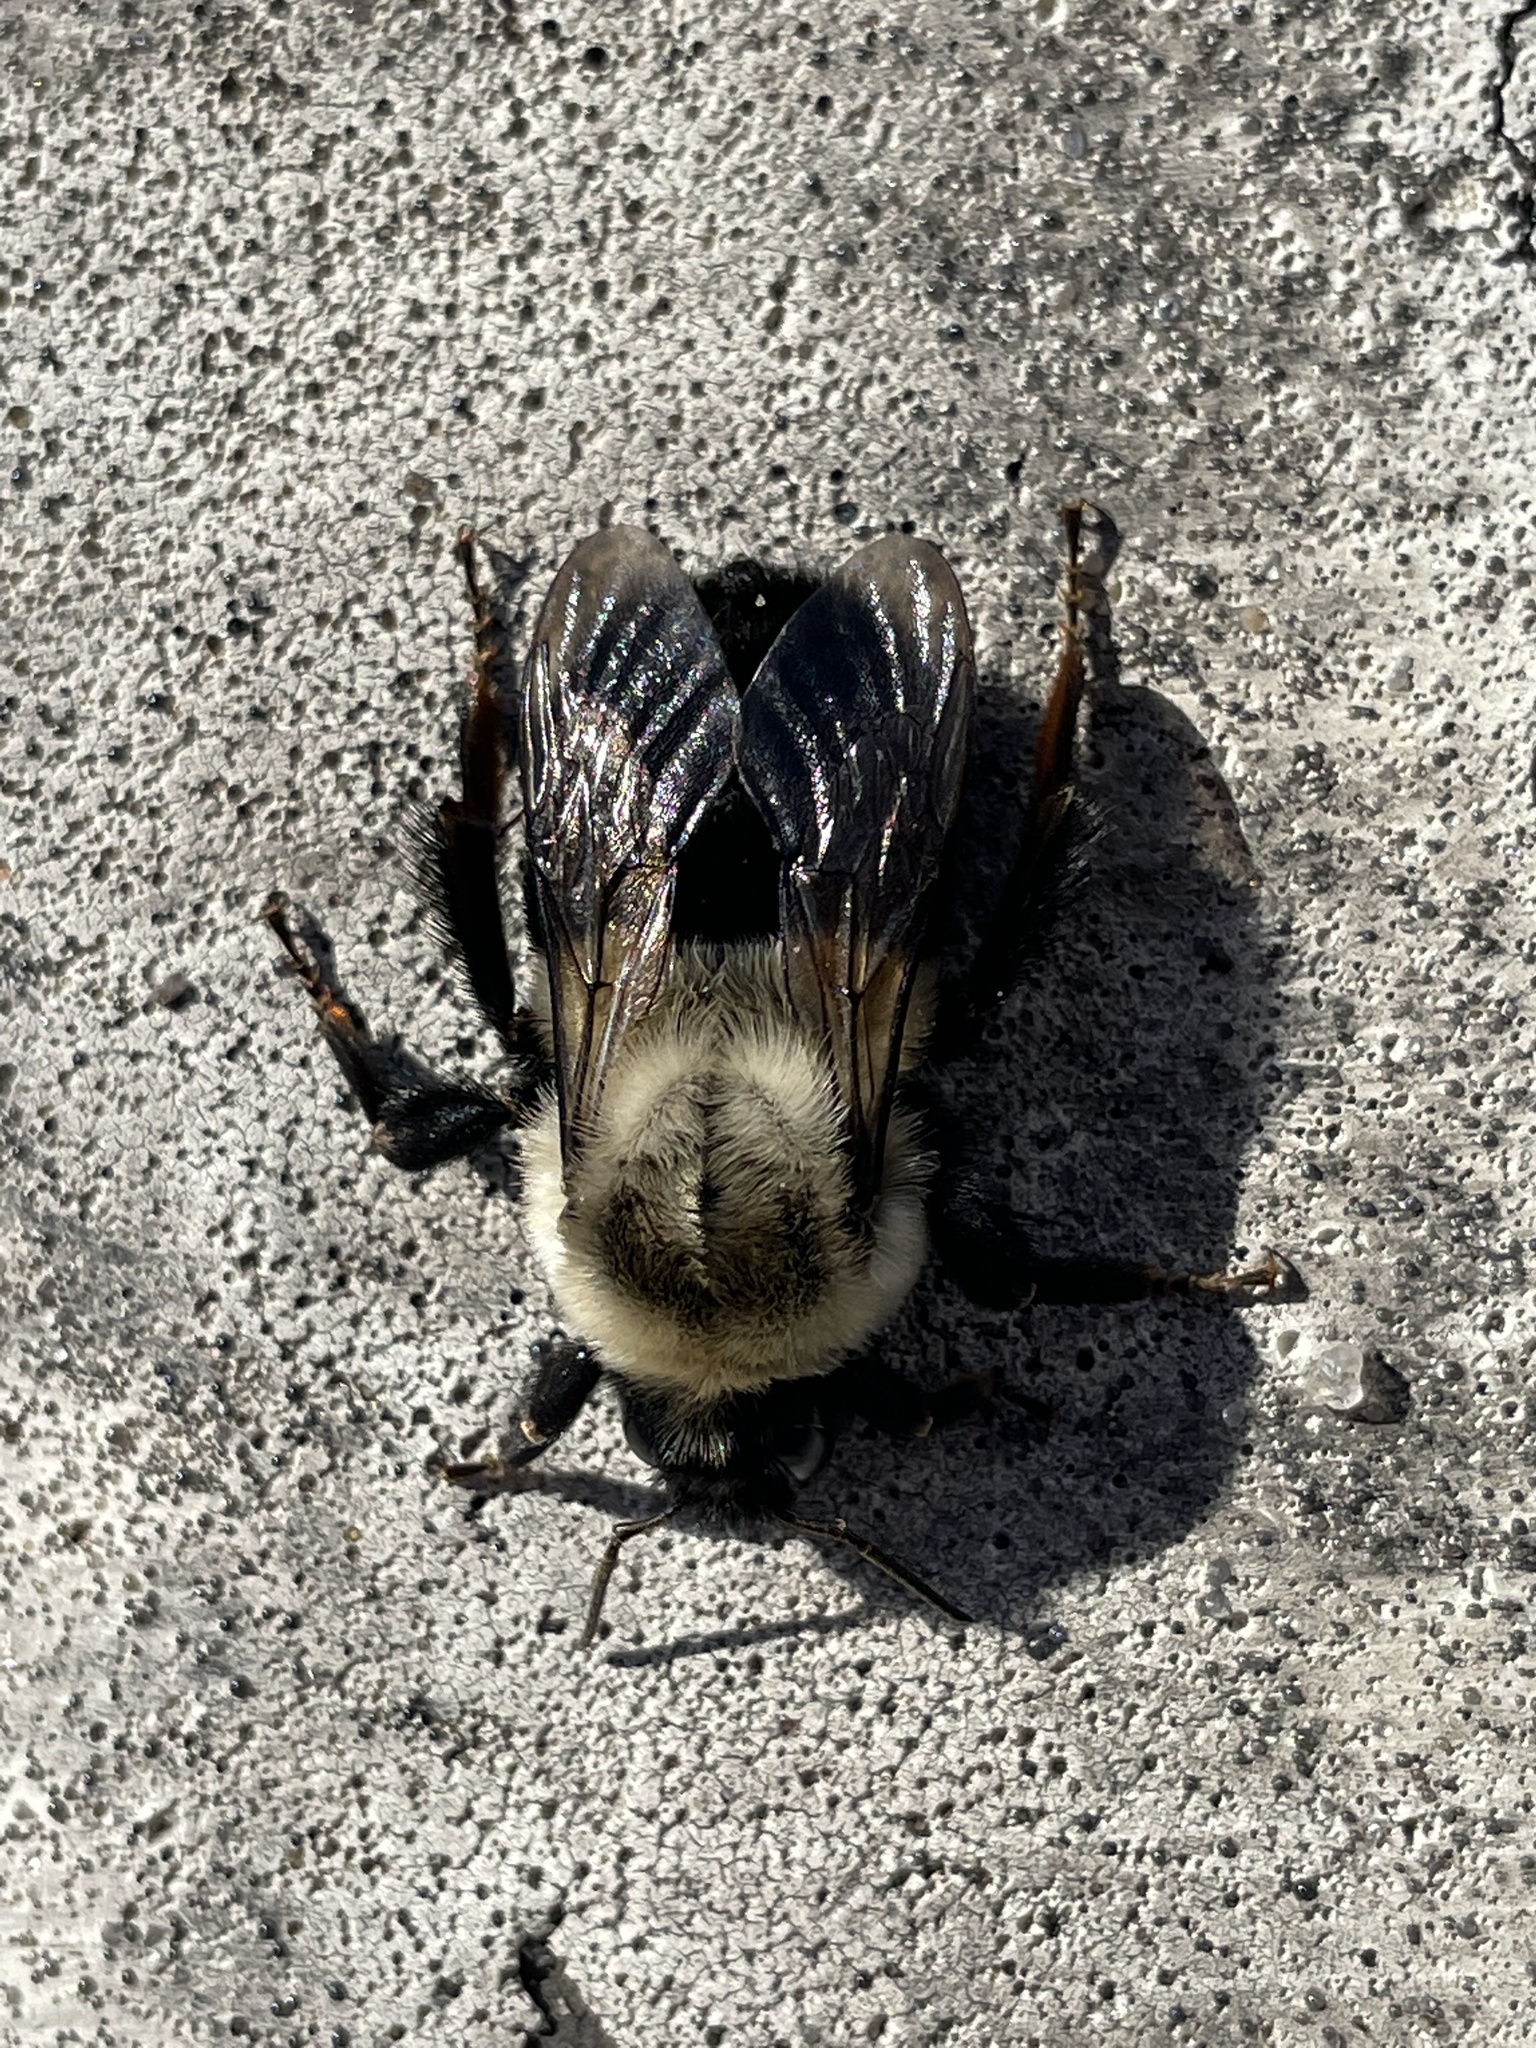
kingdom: Animalia
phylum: Arthropoda
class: Insecta
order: Hymenoptera
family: Apidae
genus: Bombus
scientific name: Bombus impatiens
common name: Common eastern bumble bee
